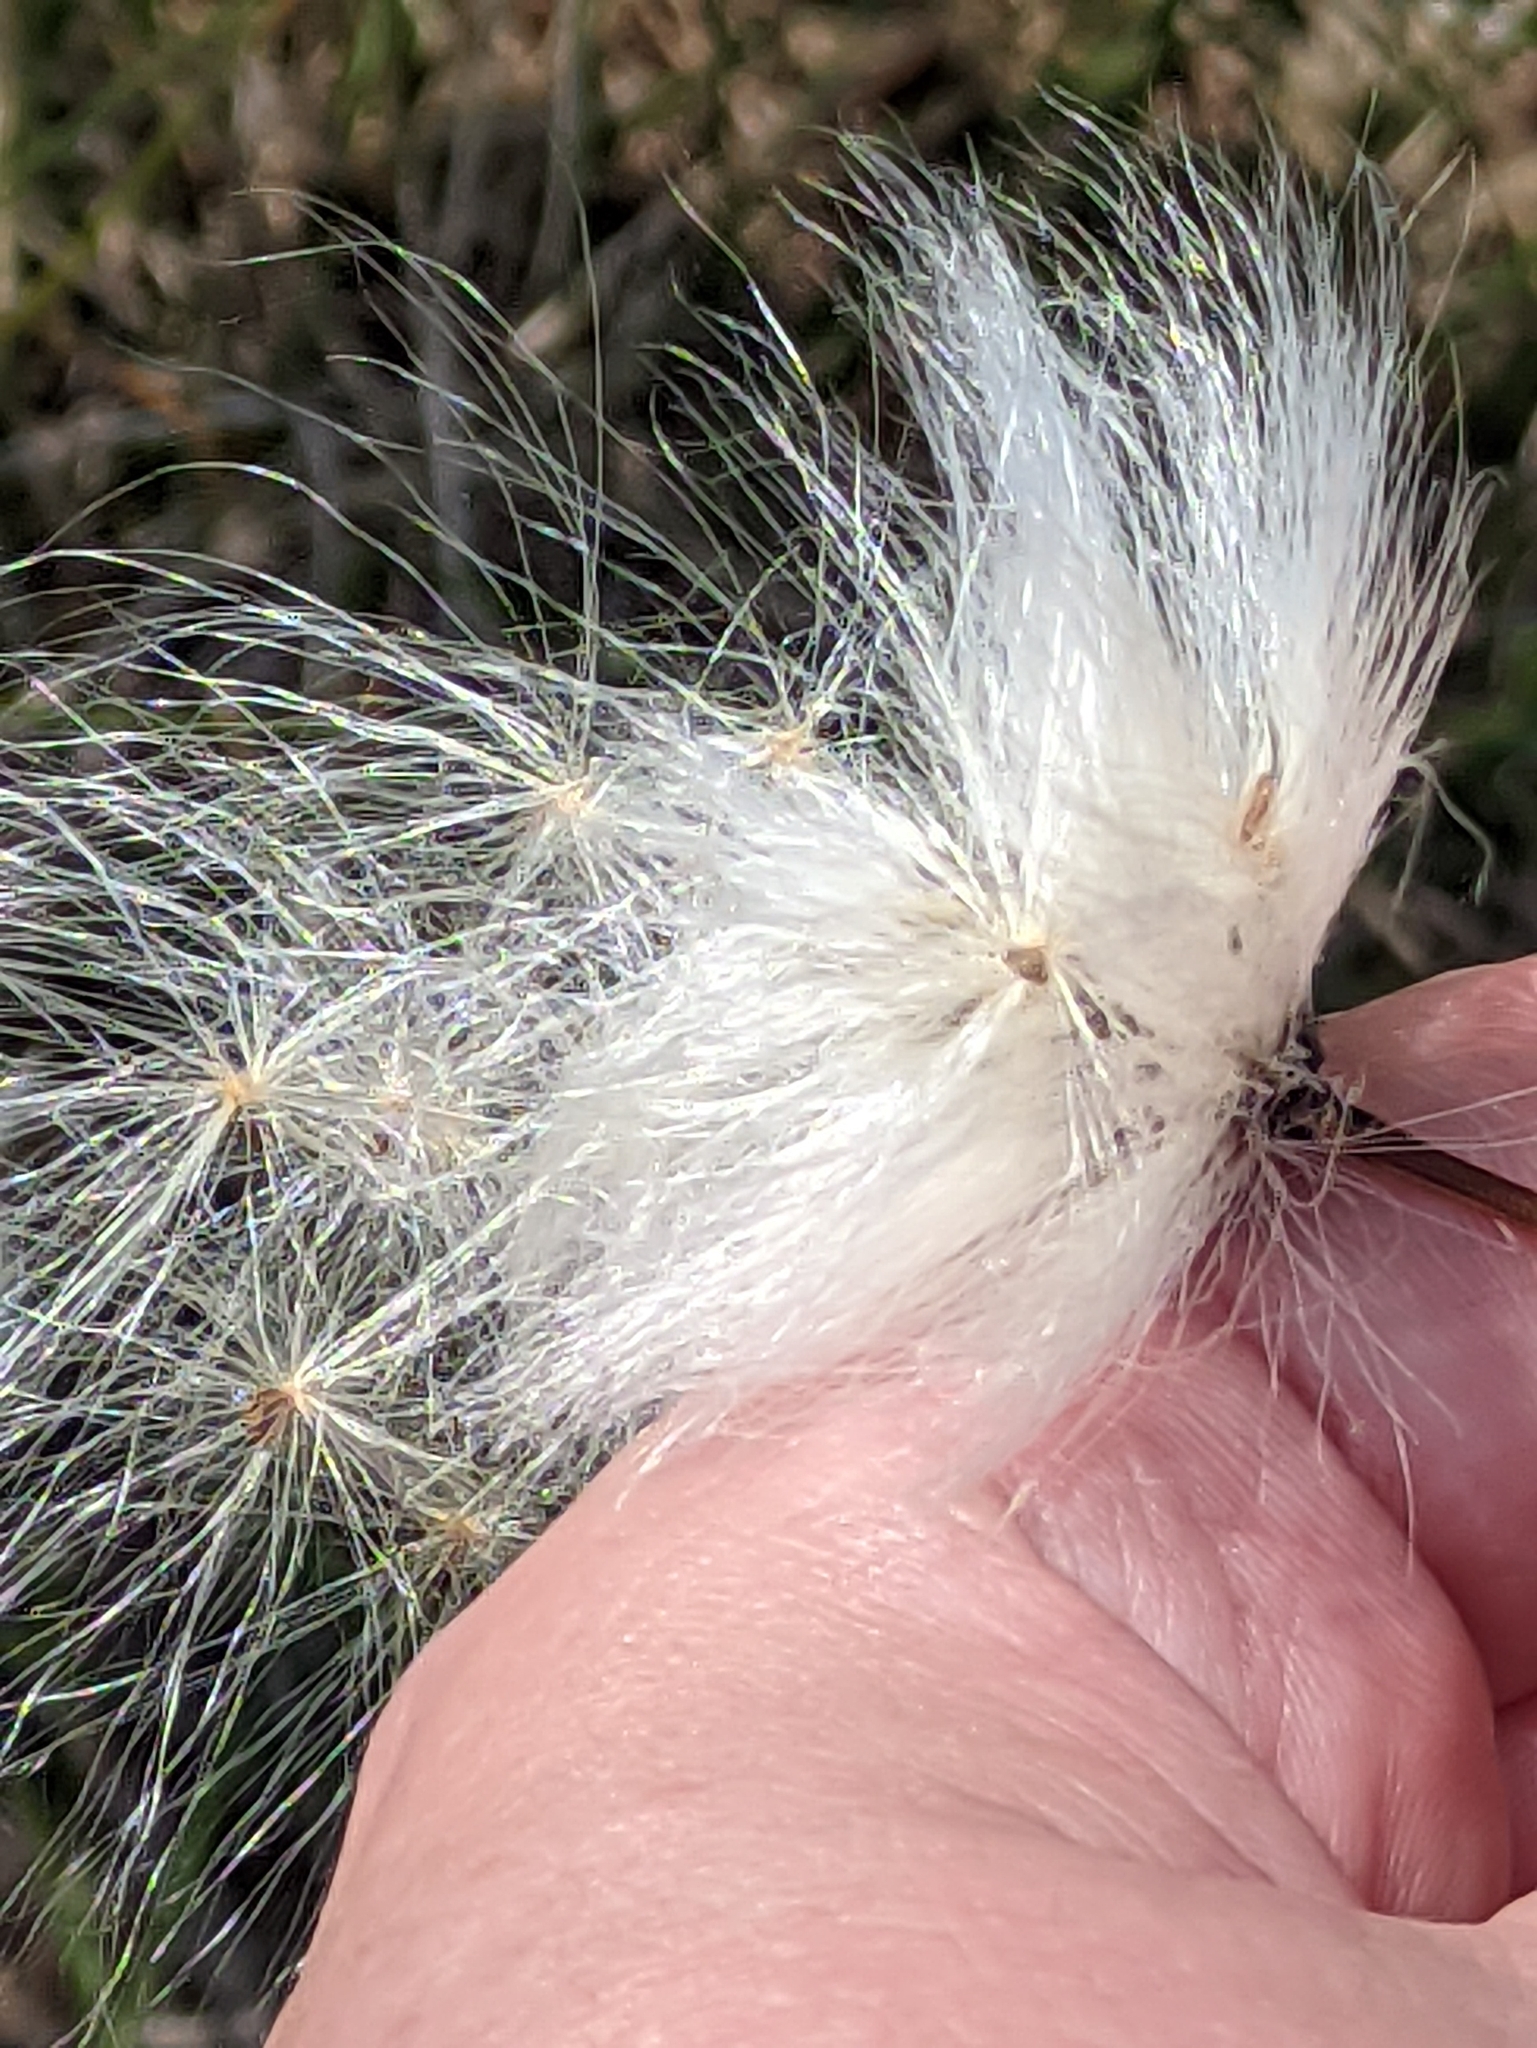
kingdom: Plantae
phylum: Tracheophyta
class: Liliopsida
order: Poales
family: Cyperaceae
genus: Eriophorum
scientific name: Eriophorum vaginatum
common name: Hare's-tail cottongrass
